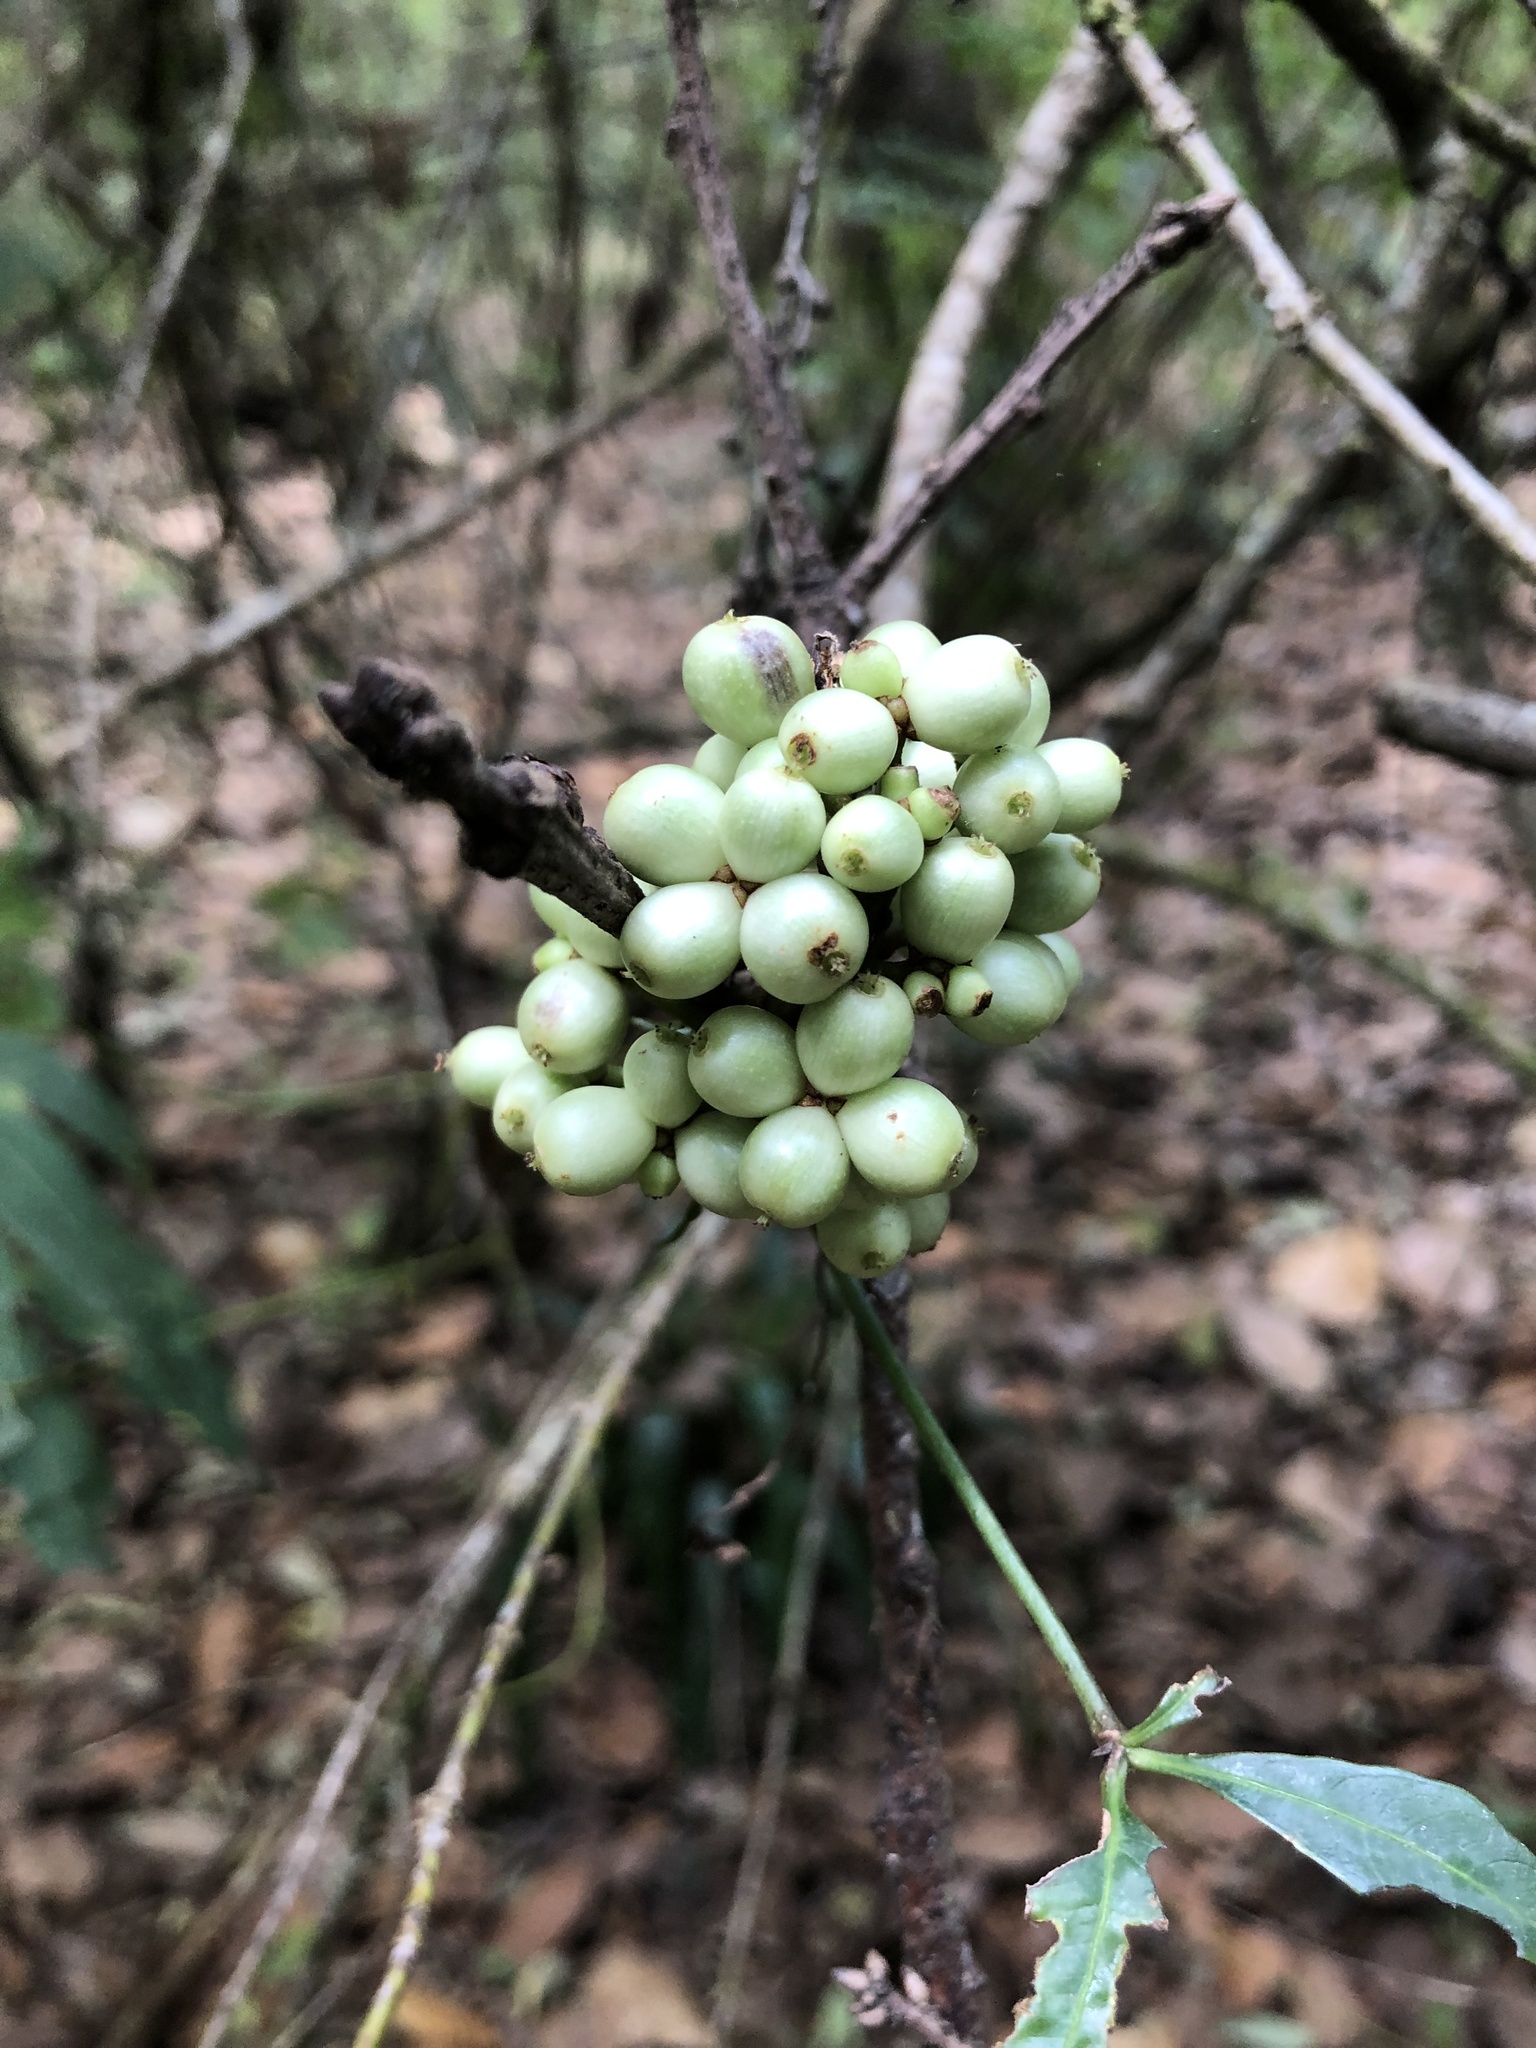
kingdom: Plantae
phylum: Tracheophyta
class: Magnoliopsida
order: Ericales
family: Primulaceae
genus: Myrsine
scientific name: Myrsine juergensenii
